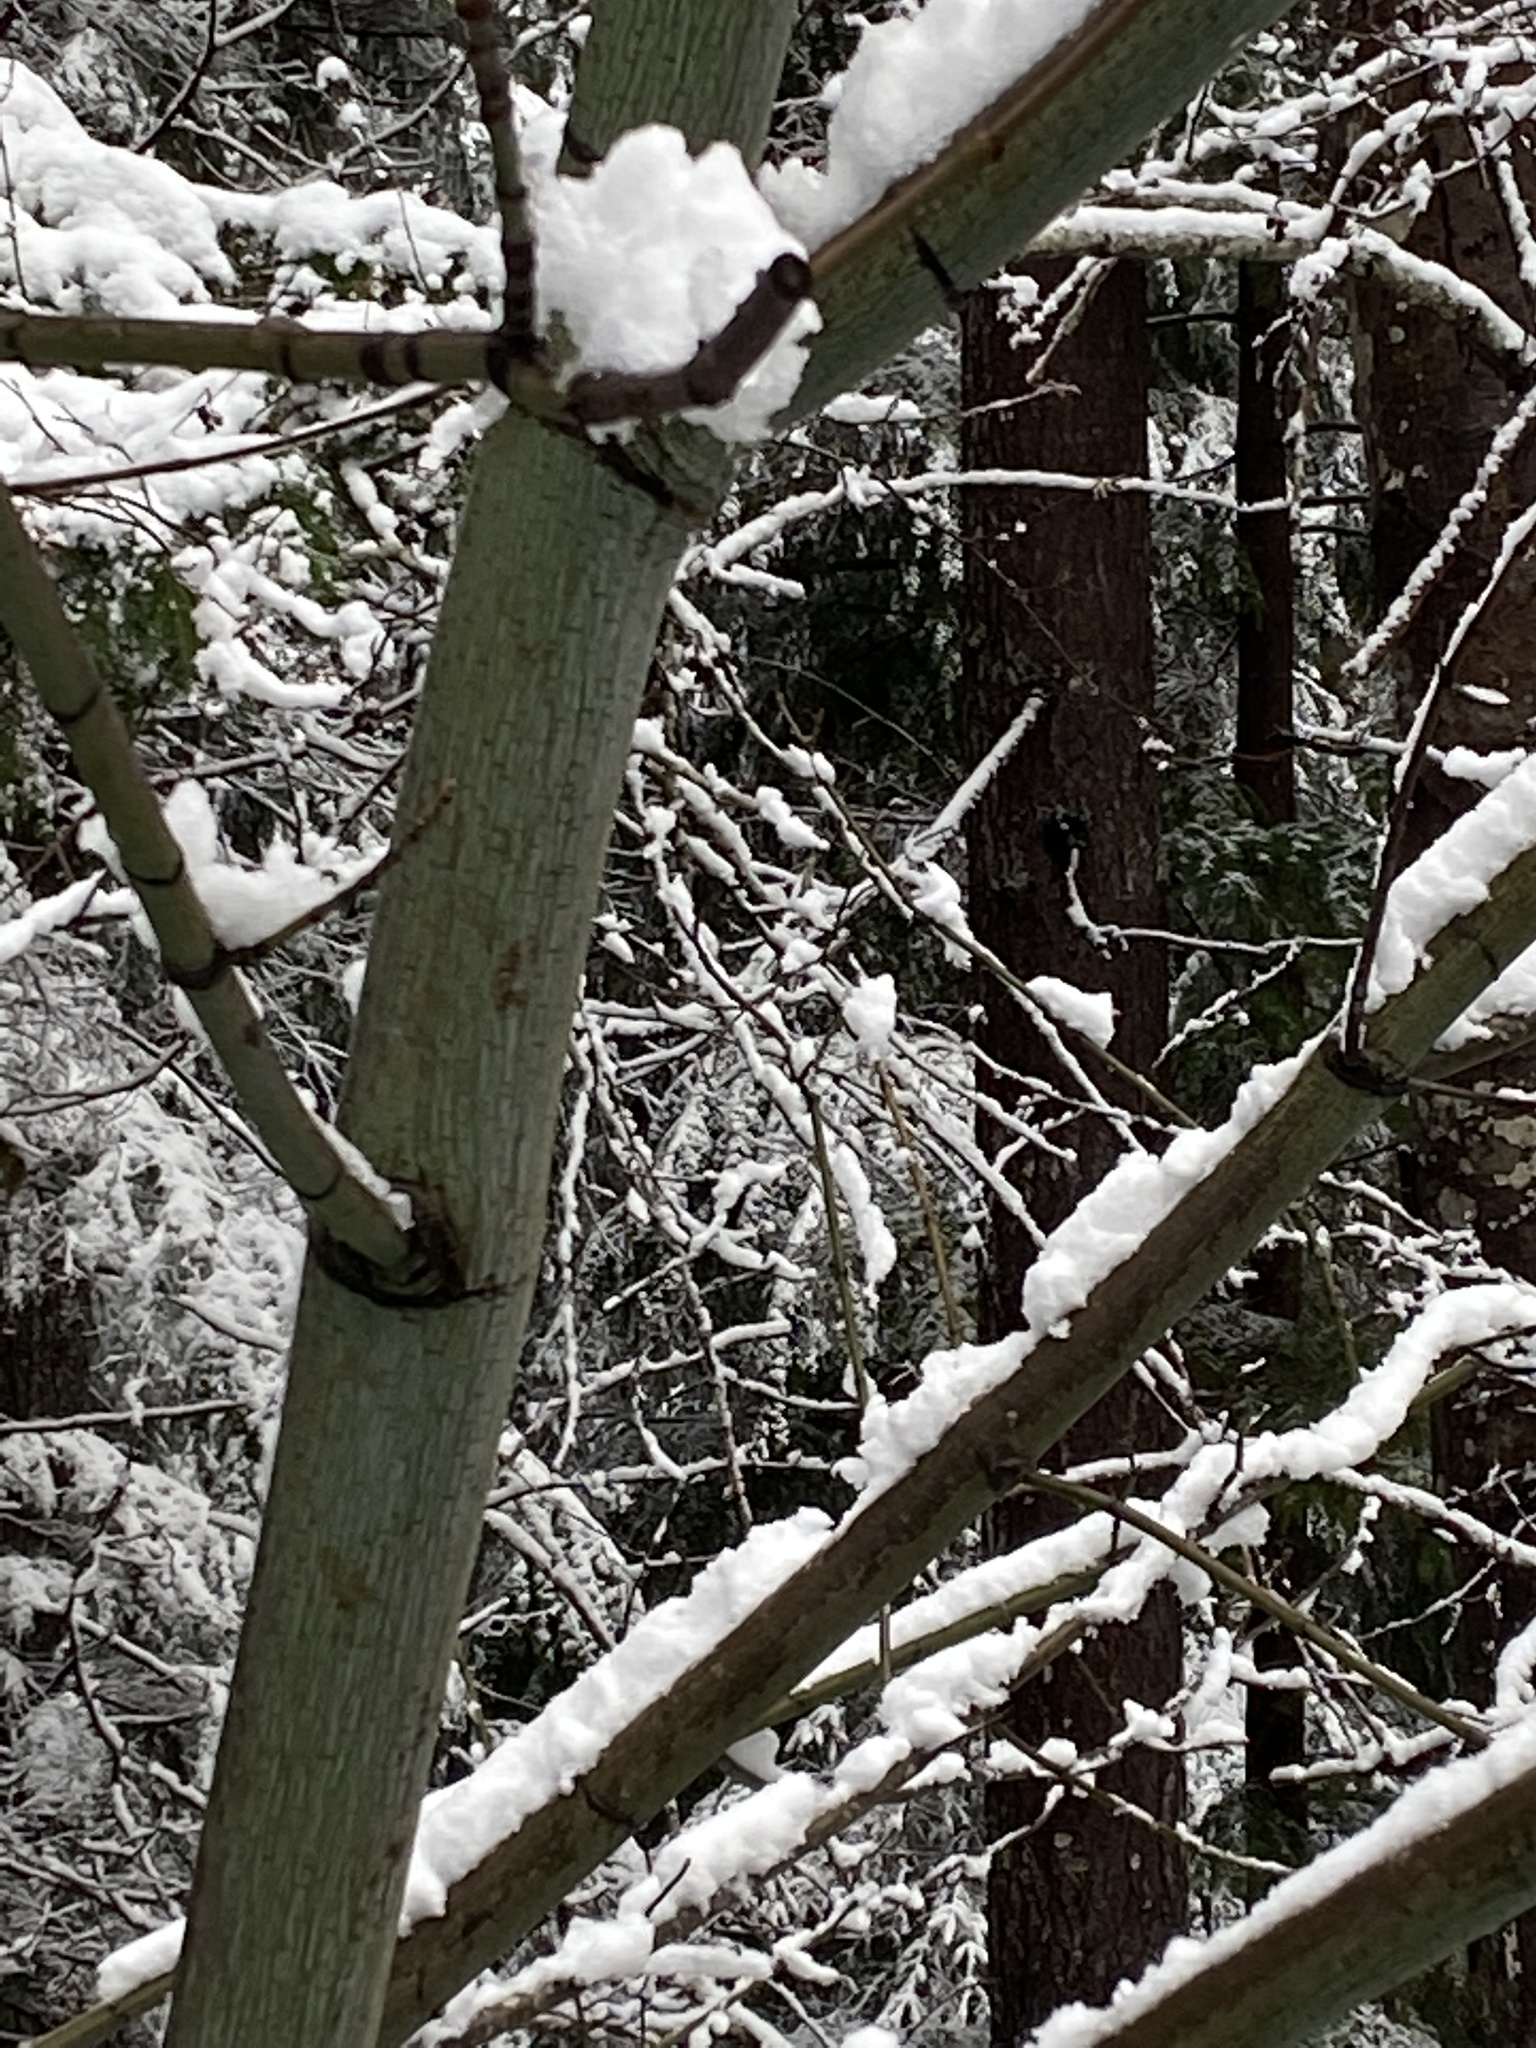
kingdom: Plantae
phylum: Tracheophyta
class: Magnoliopsida
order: Sapindales
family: Sapindaceae
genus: Acer
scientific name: Acer macrophyllum
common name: Oregon maple
